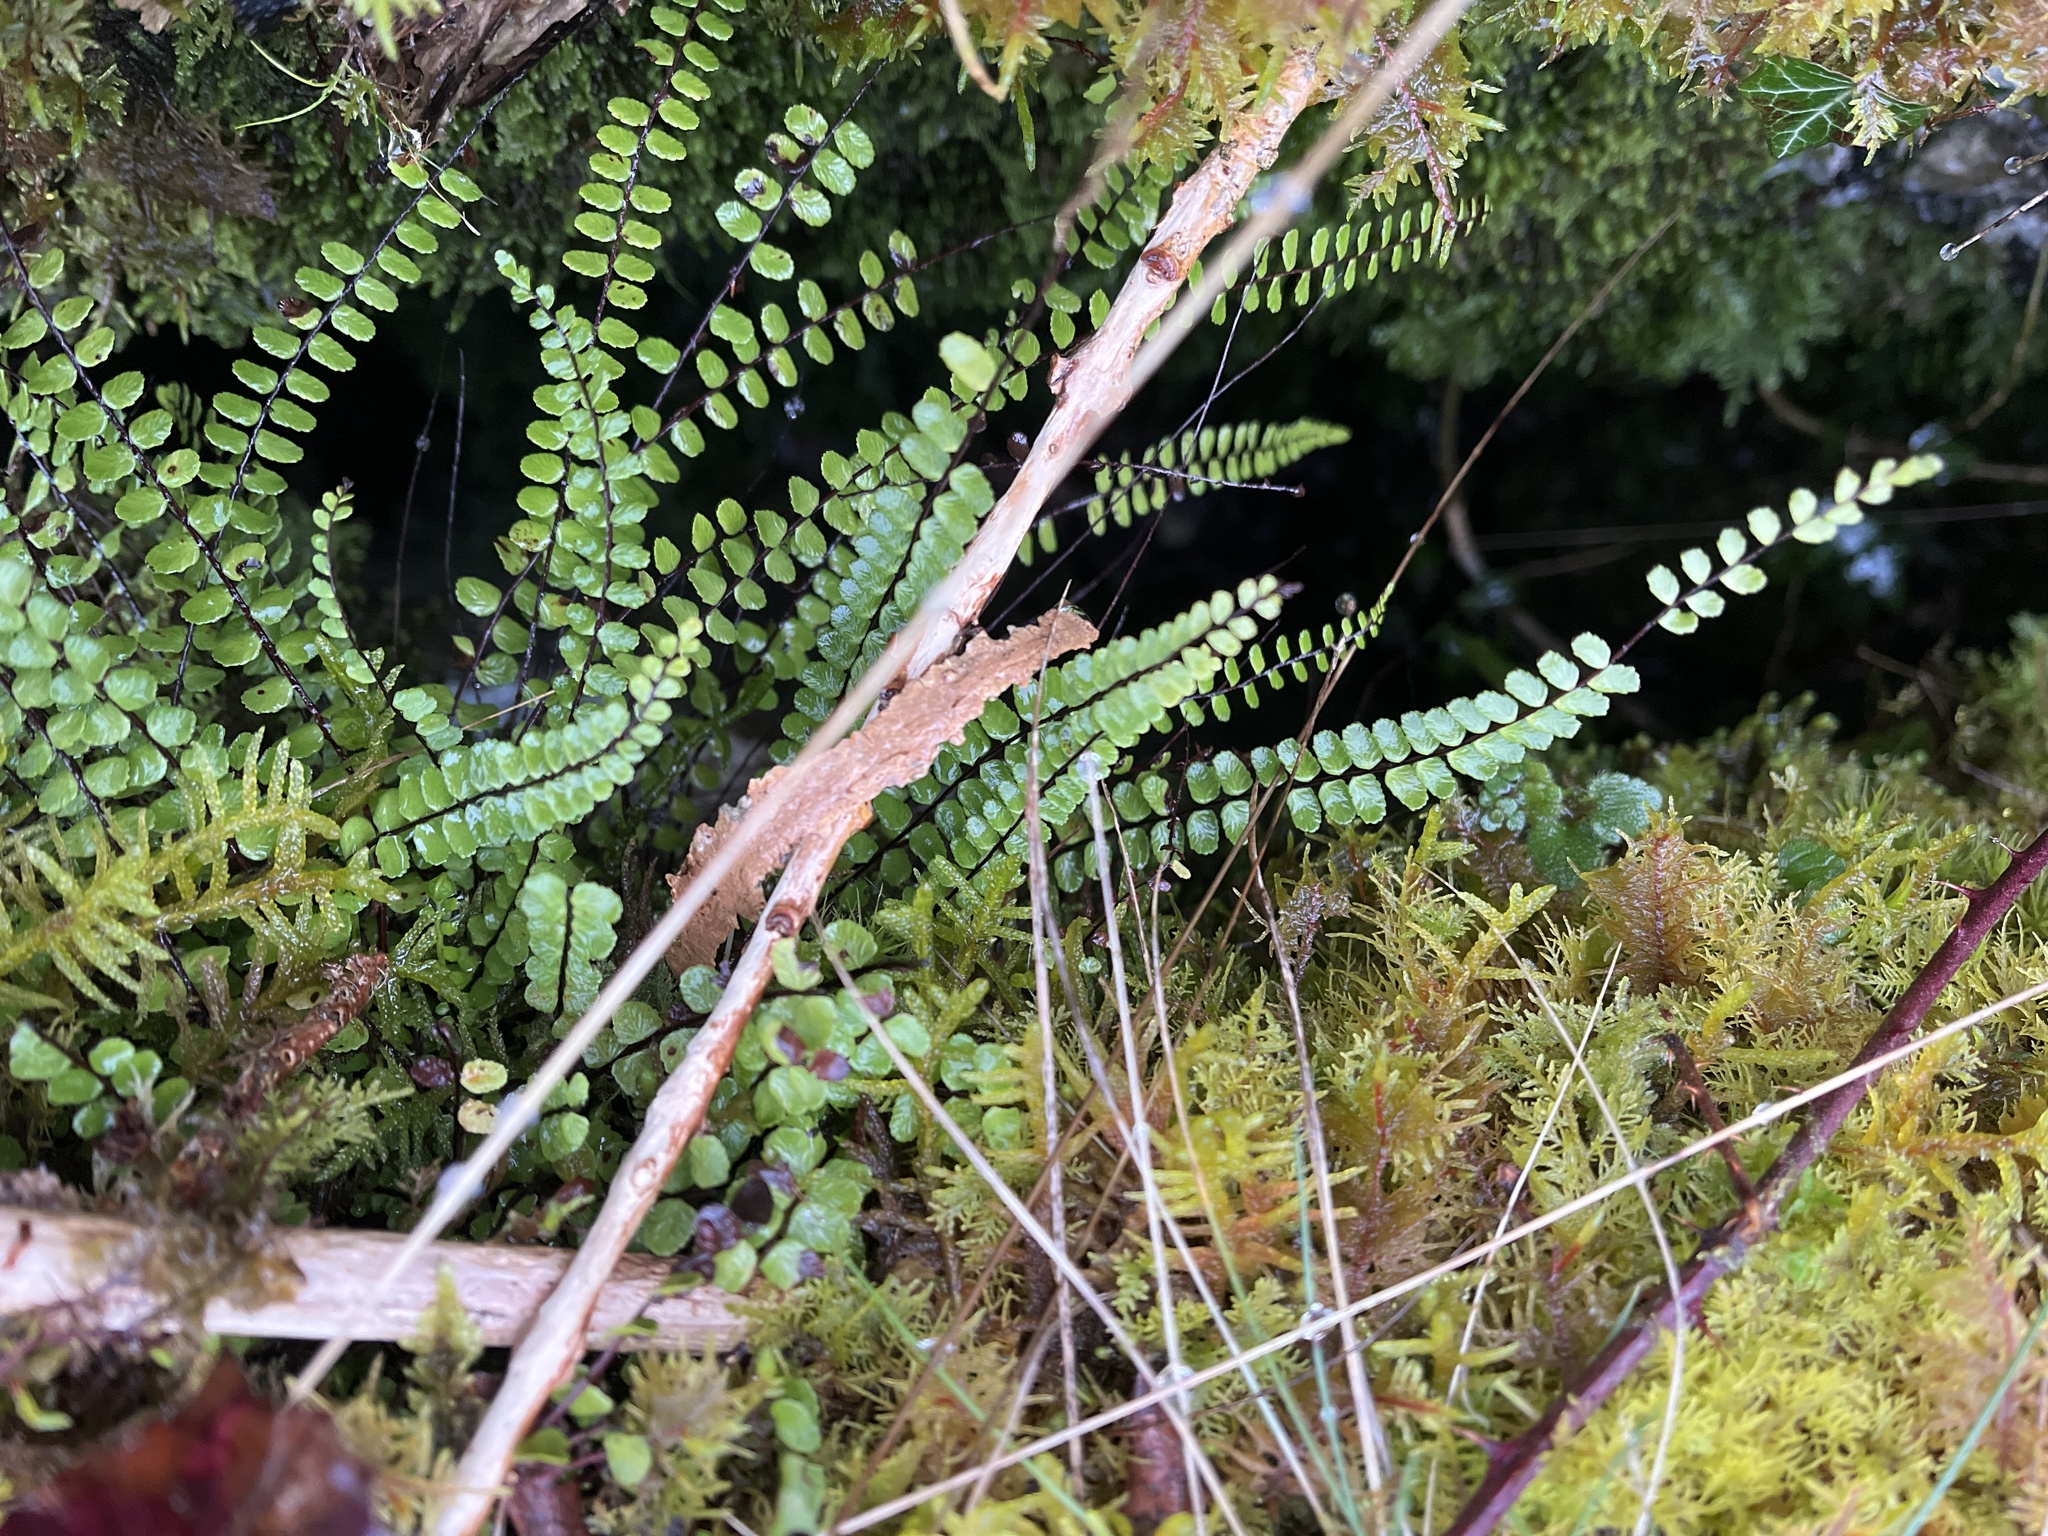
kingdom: Plantae
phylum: Tracheophyta
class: Polypodiopsida
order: Polypodiales
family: Aspleniaceae
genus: Asplenium
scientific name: Asplenium trichomanes
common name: Maidenhair spleenwort
